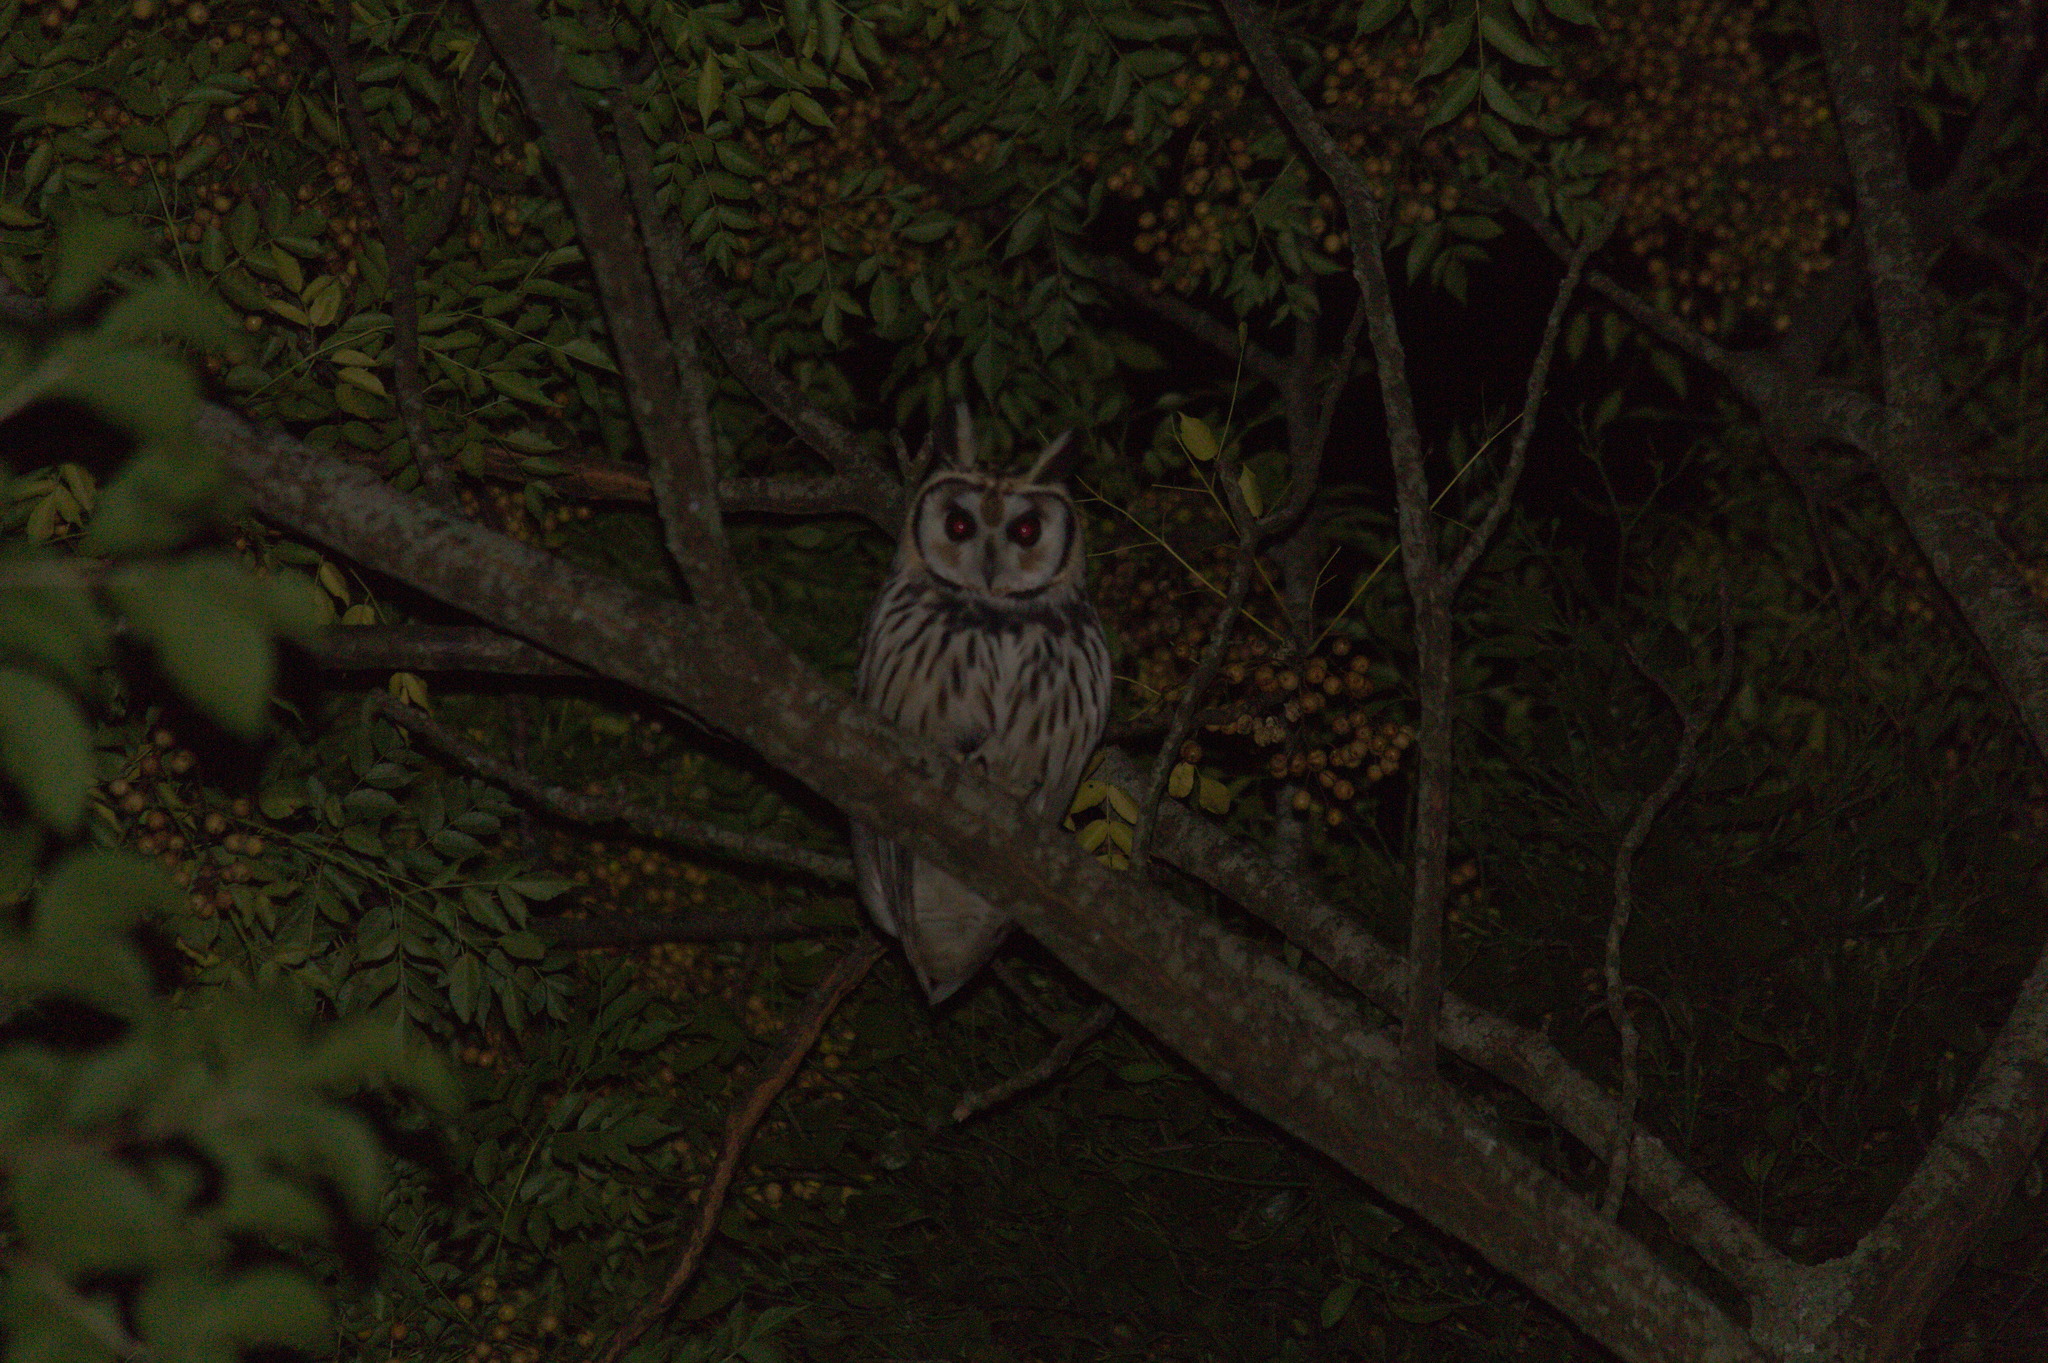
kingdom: Animalia
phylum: Chordata
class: Aves
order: Strigiformes
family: Strigidae
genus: Pseudoscops
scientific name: Pseudoscops clamator
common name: Striped owl
